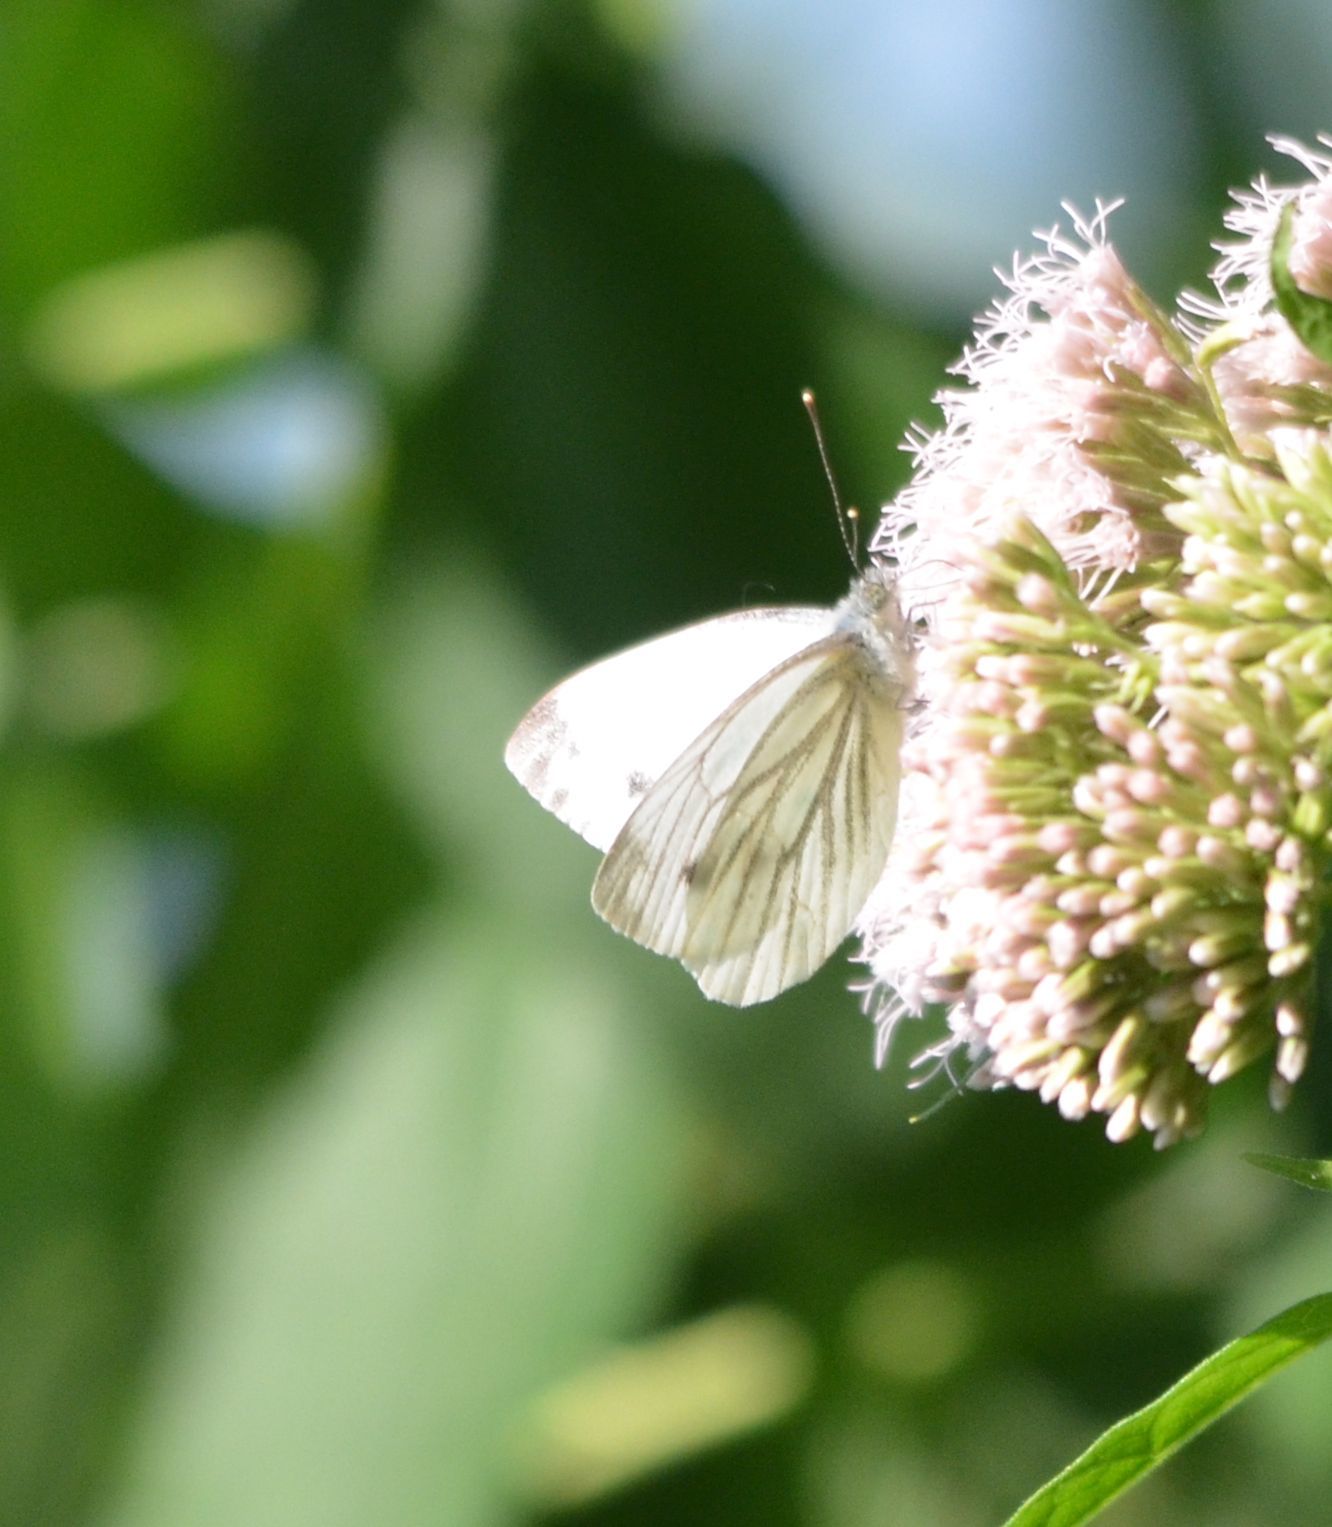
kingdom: Animalia
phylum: Arthropoda
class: Insecta
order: Lepidoptera
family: Pieridae
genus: Pieris
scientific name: Pieris napi
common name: Green-veined white
